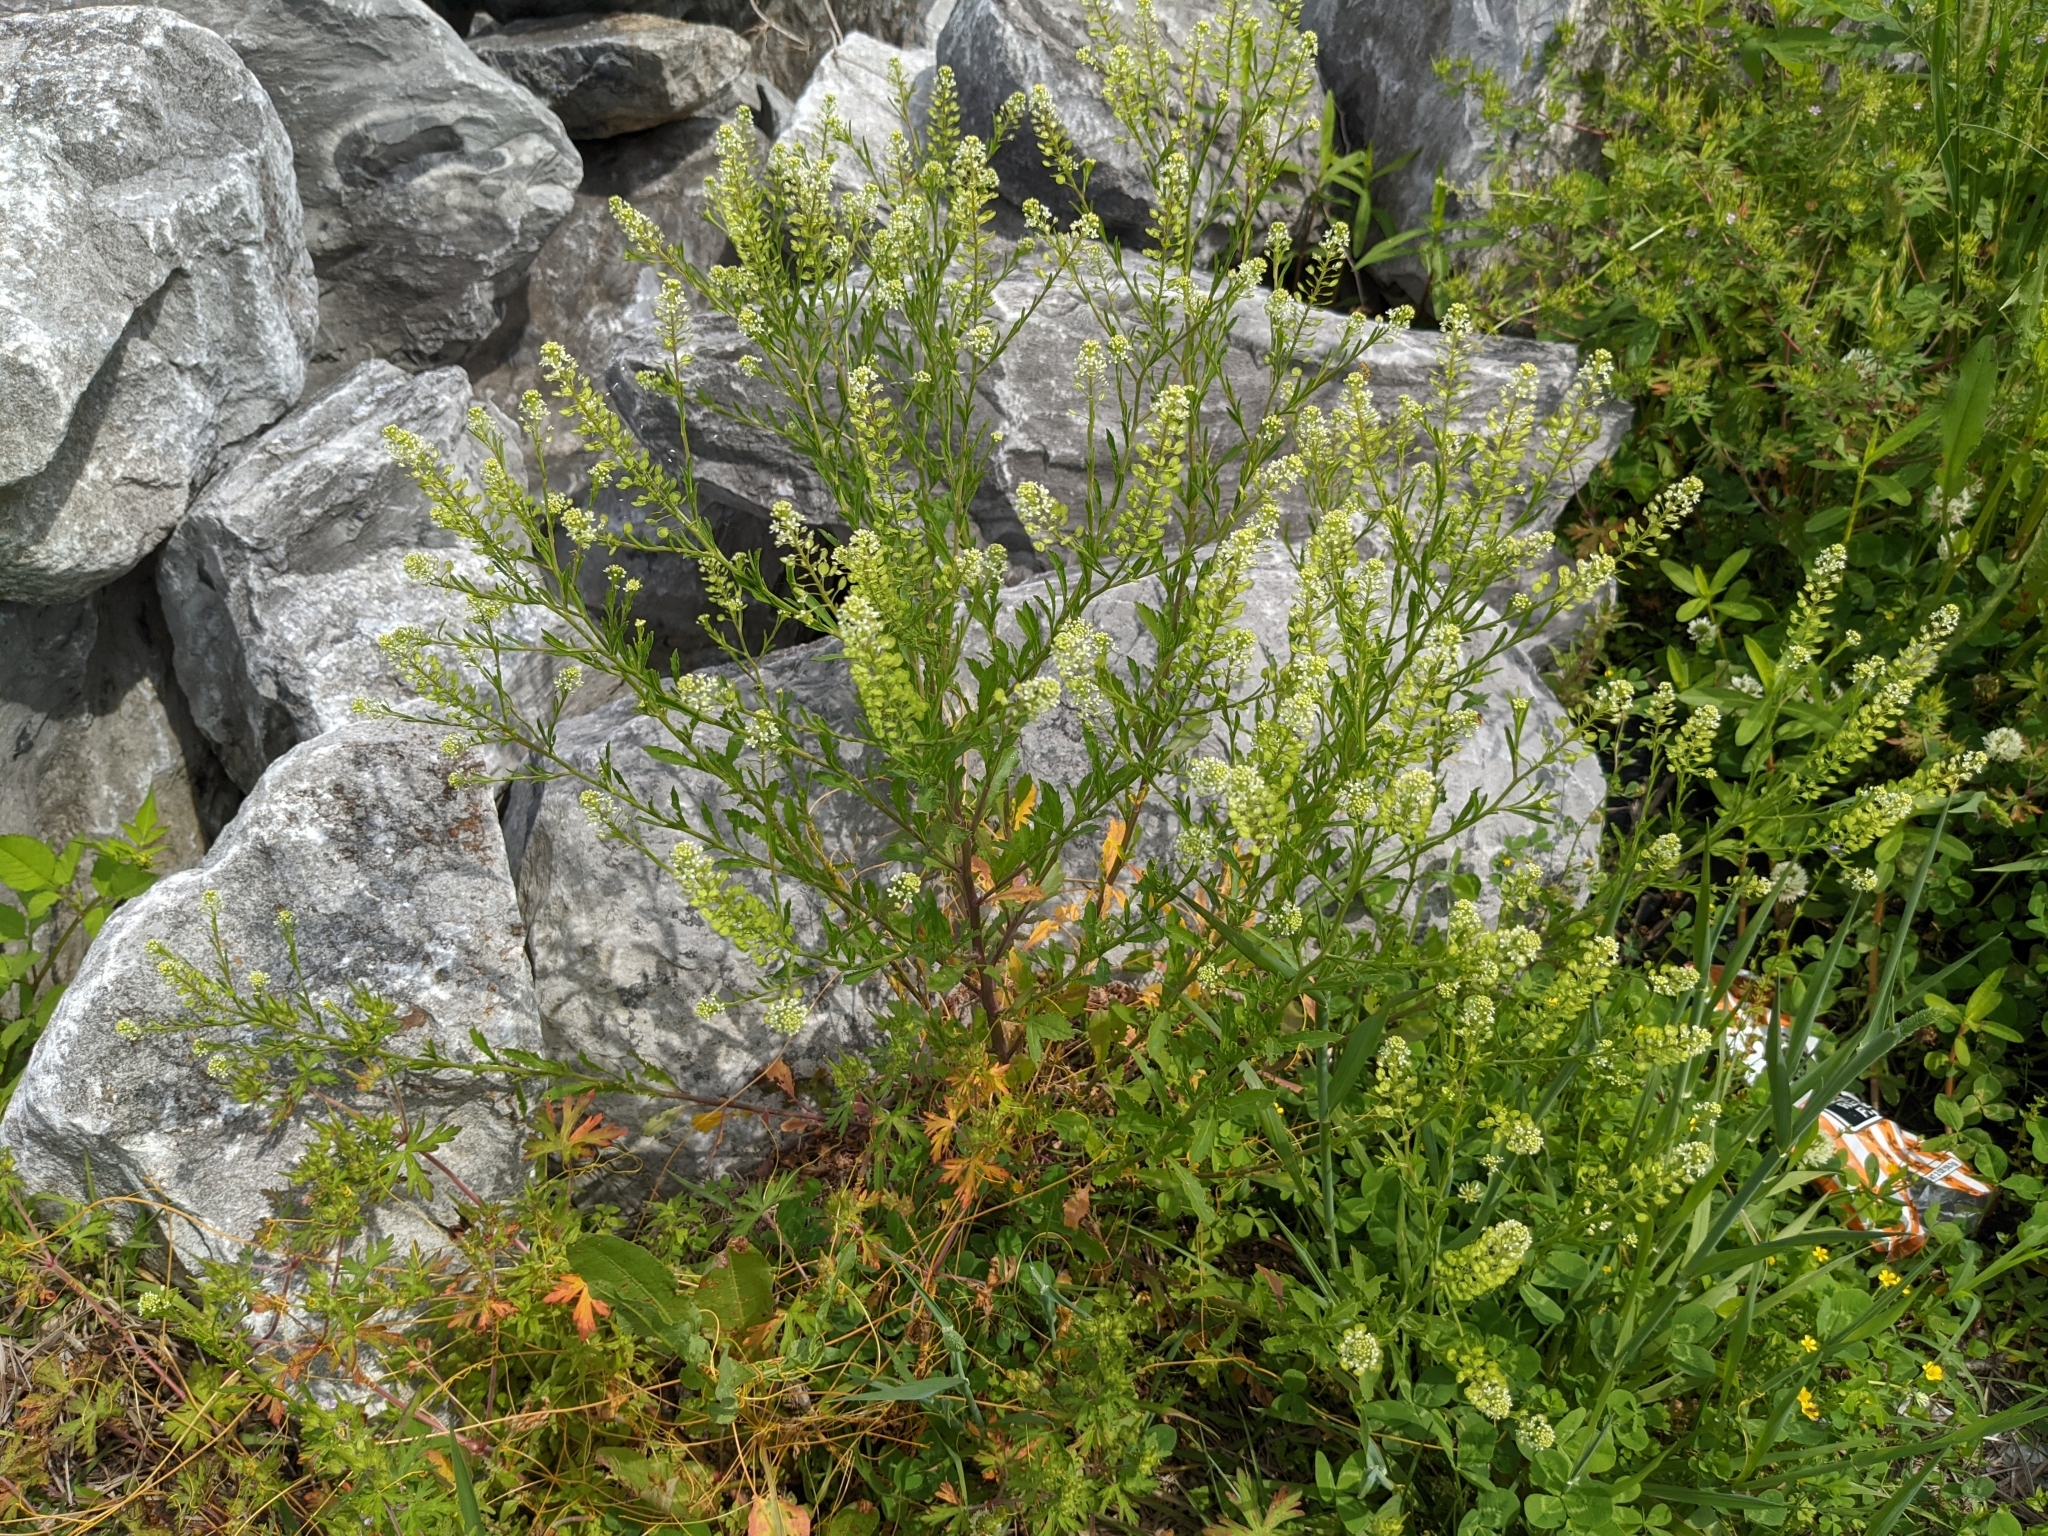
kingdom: Plantae
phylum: Tracheophyta
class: Magnoliopsida
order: Brassicales
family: Brassicaceae
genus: Lepidium
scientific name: Lepidium virginicum
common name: Least pepperwort
